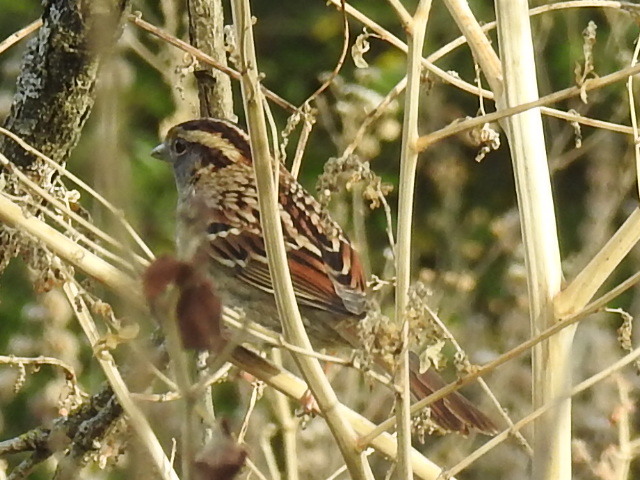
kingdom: Animalia
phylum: Chordata
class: Aves
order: Passeriformes
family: Passerellidae
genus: Zonotrichia
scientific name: Zonotrichia albicollis
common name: White-throated sparrow
